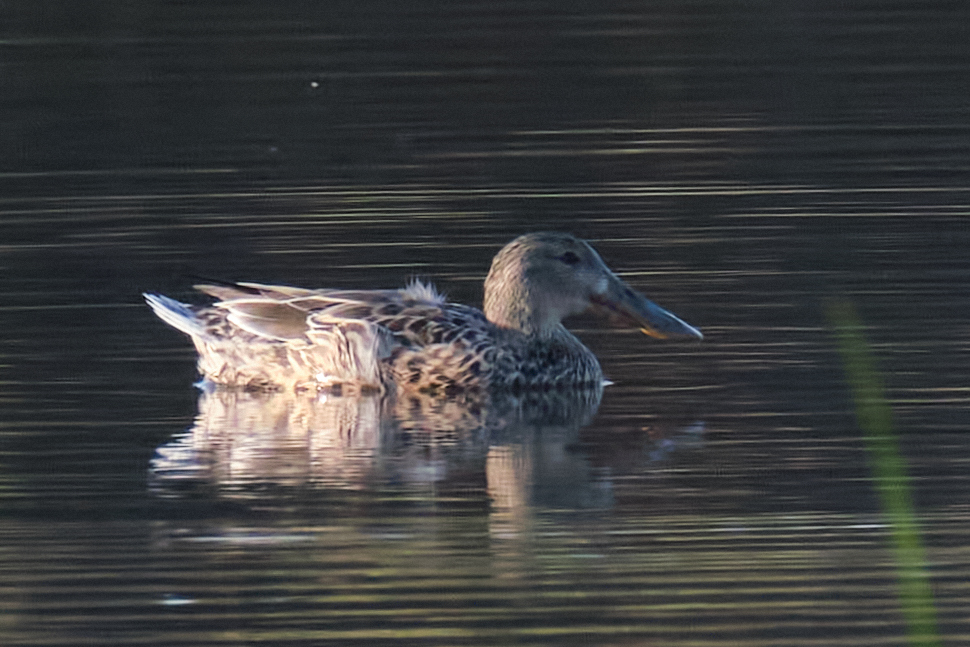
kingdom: Animalia
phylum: Chordata
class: Aves
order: Anseriformes
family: Anatidae
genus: Spatula
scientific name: Spatula clypeata
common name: Northern shoveler
